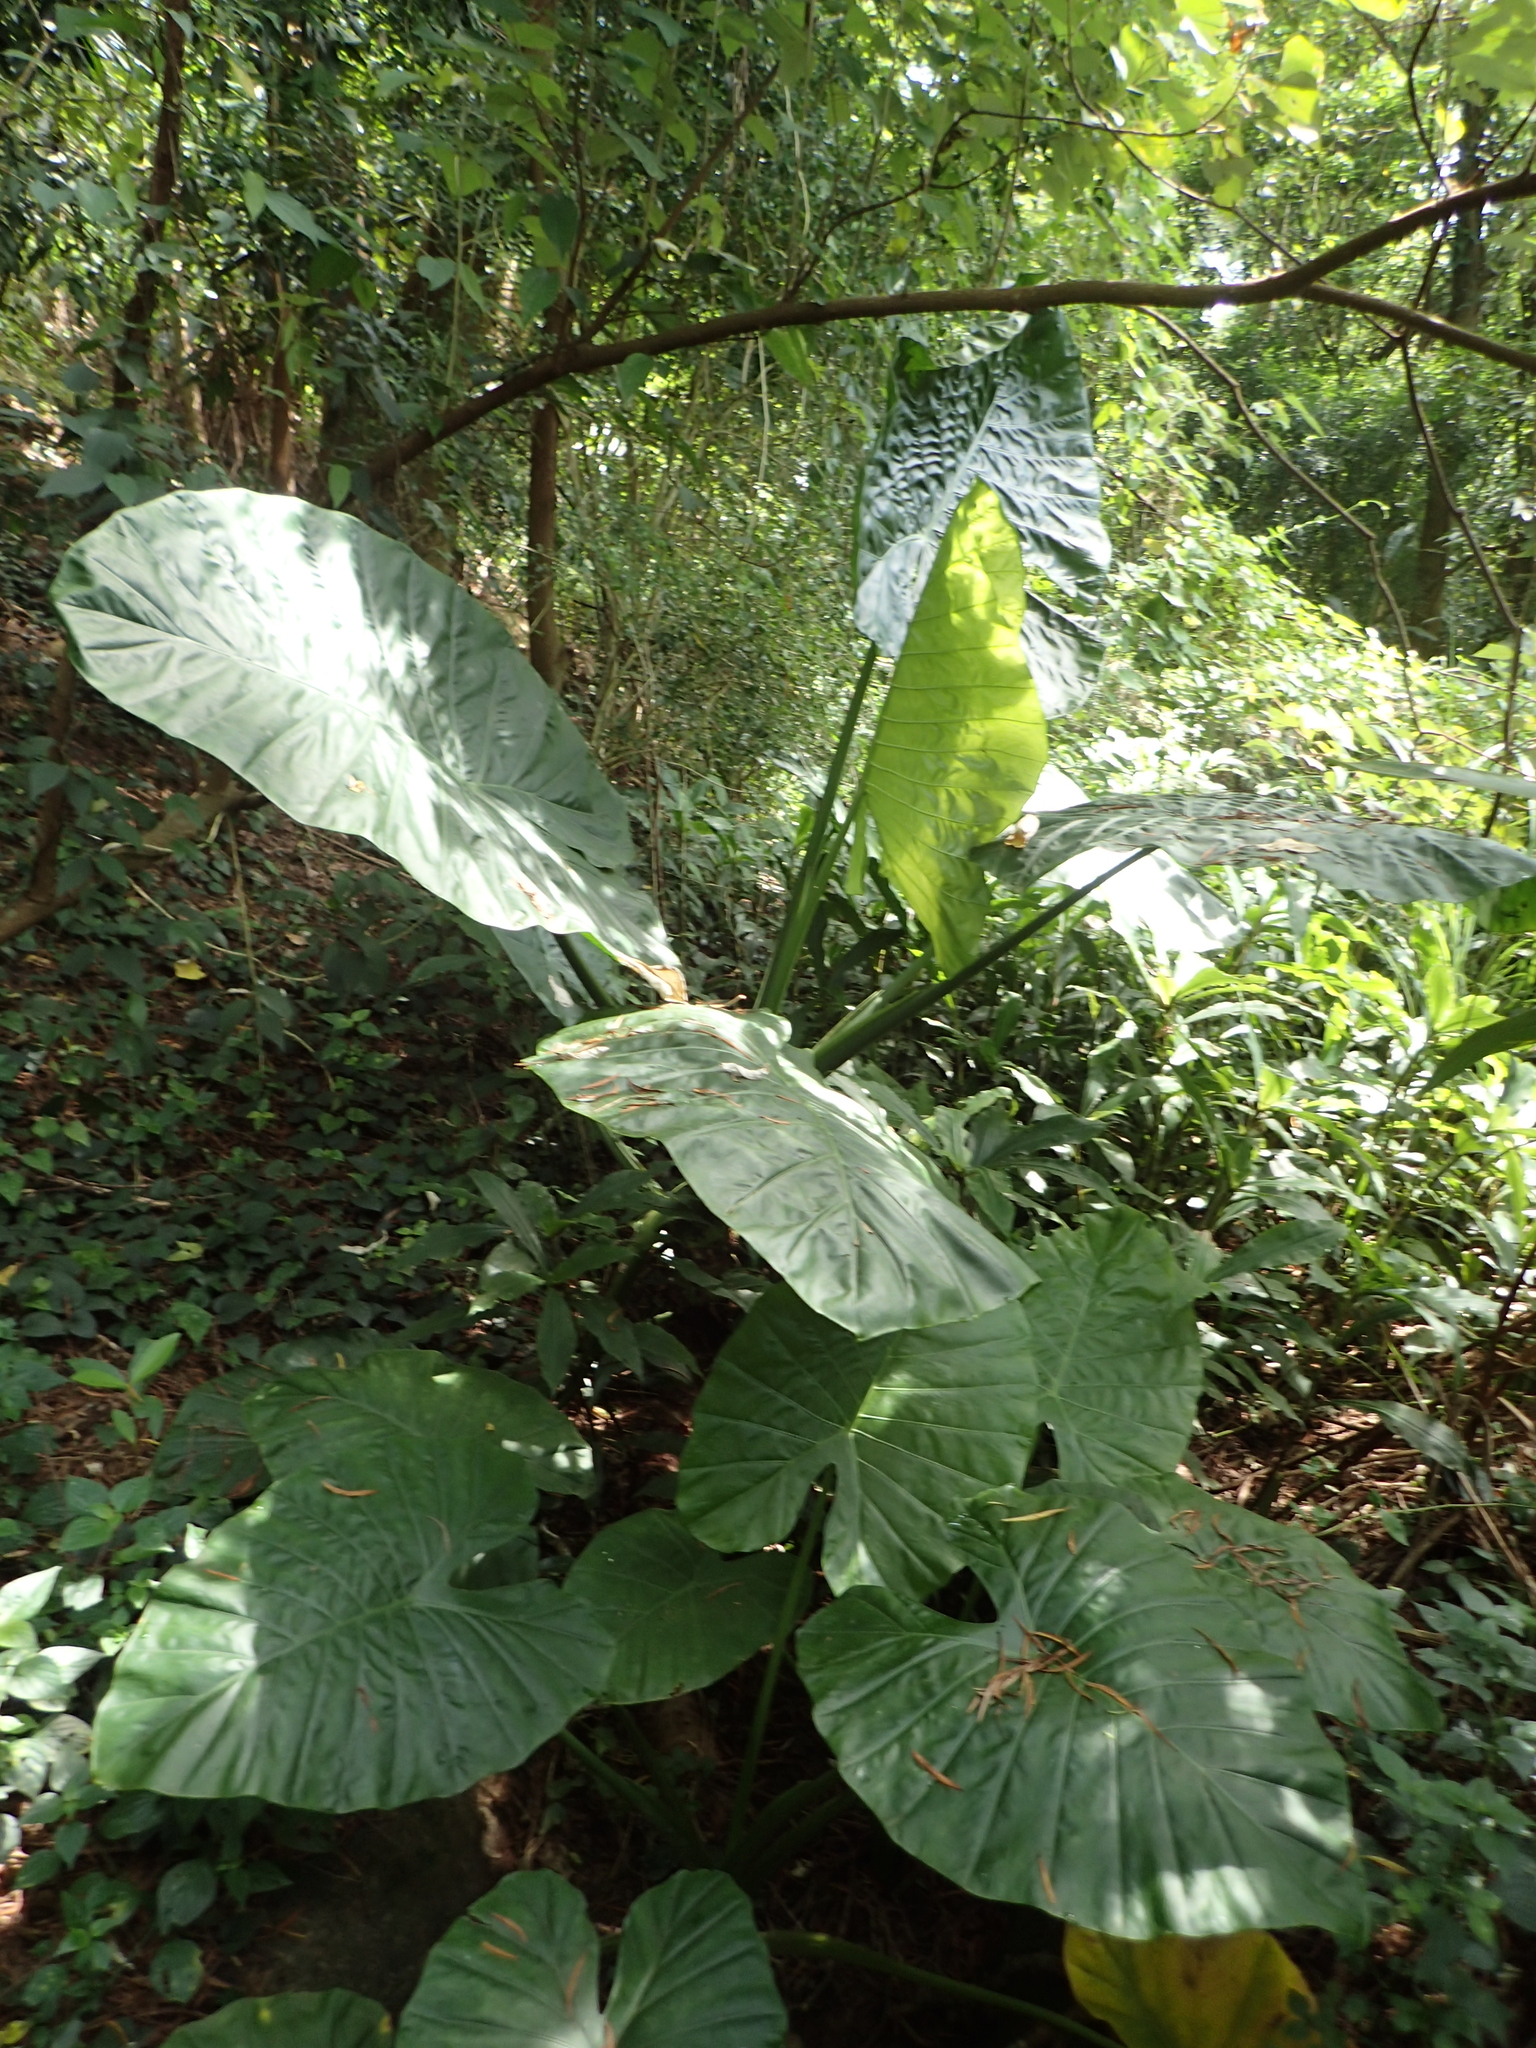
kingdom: Plantae
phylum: Tracheophyta
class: Liliopsida
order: Alismatales
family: Araceae
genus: Alocasia
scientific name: Alocasia odora
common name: Asian taro
